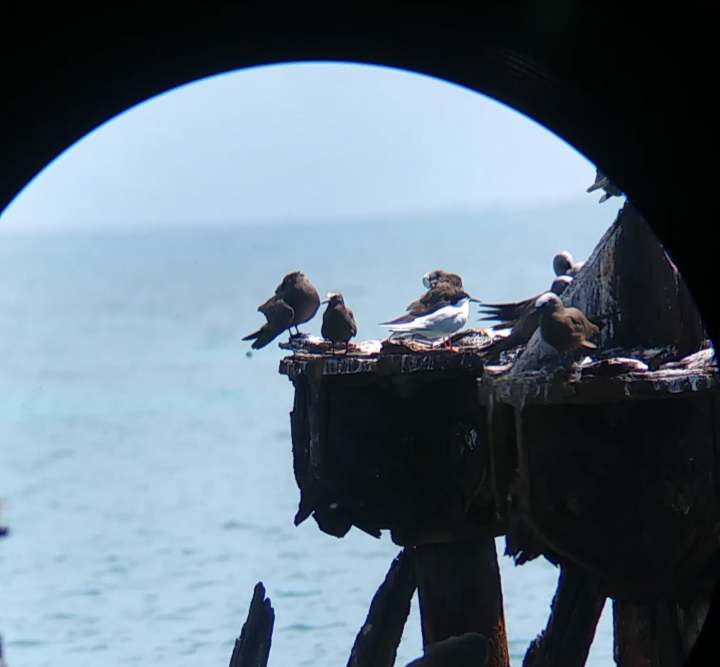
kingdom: Animalia
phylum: Chordata
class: Aves
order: Charadriiformes
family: Laridae
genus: Sterna
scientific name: Sterna dougallii
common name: Roseate tern
